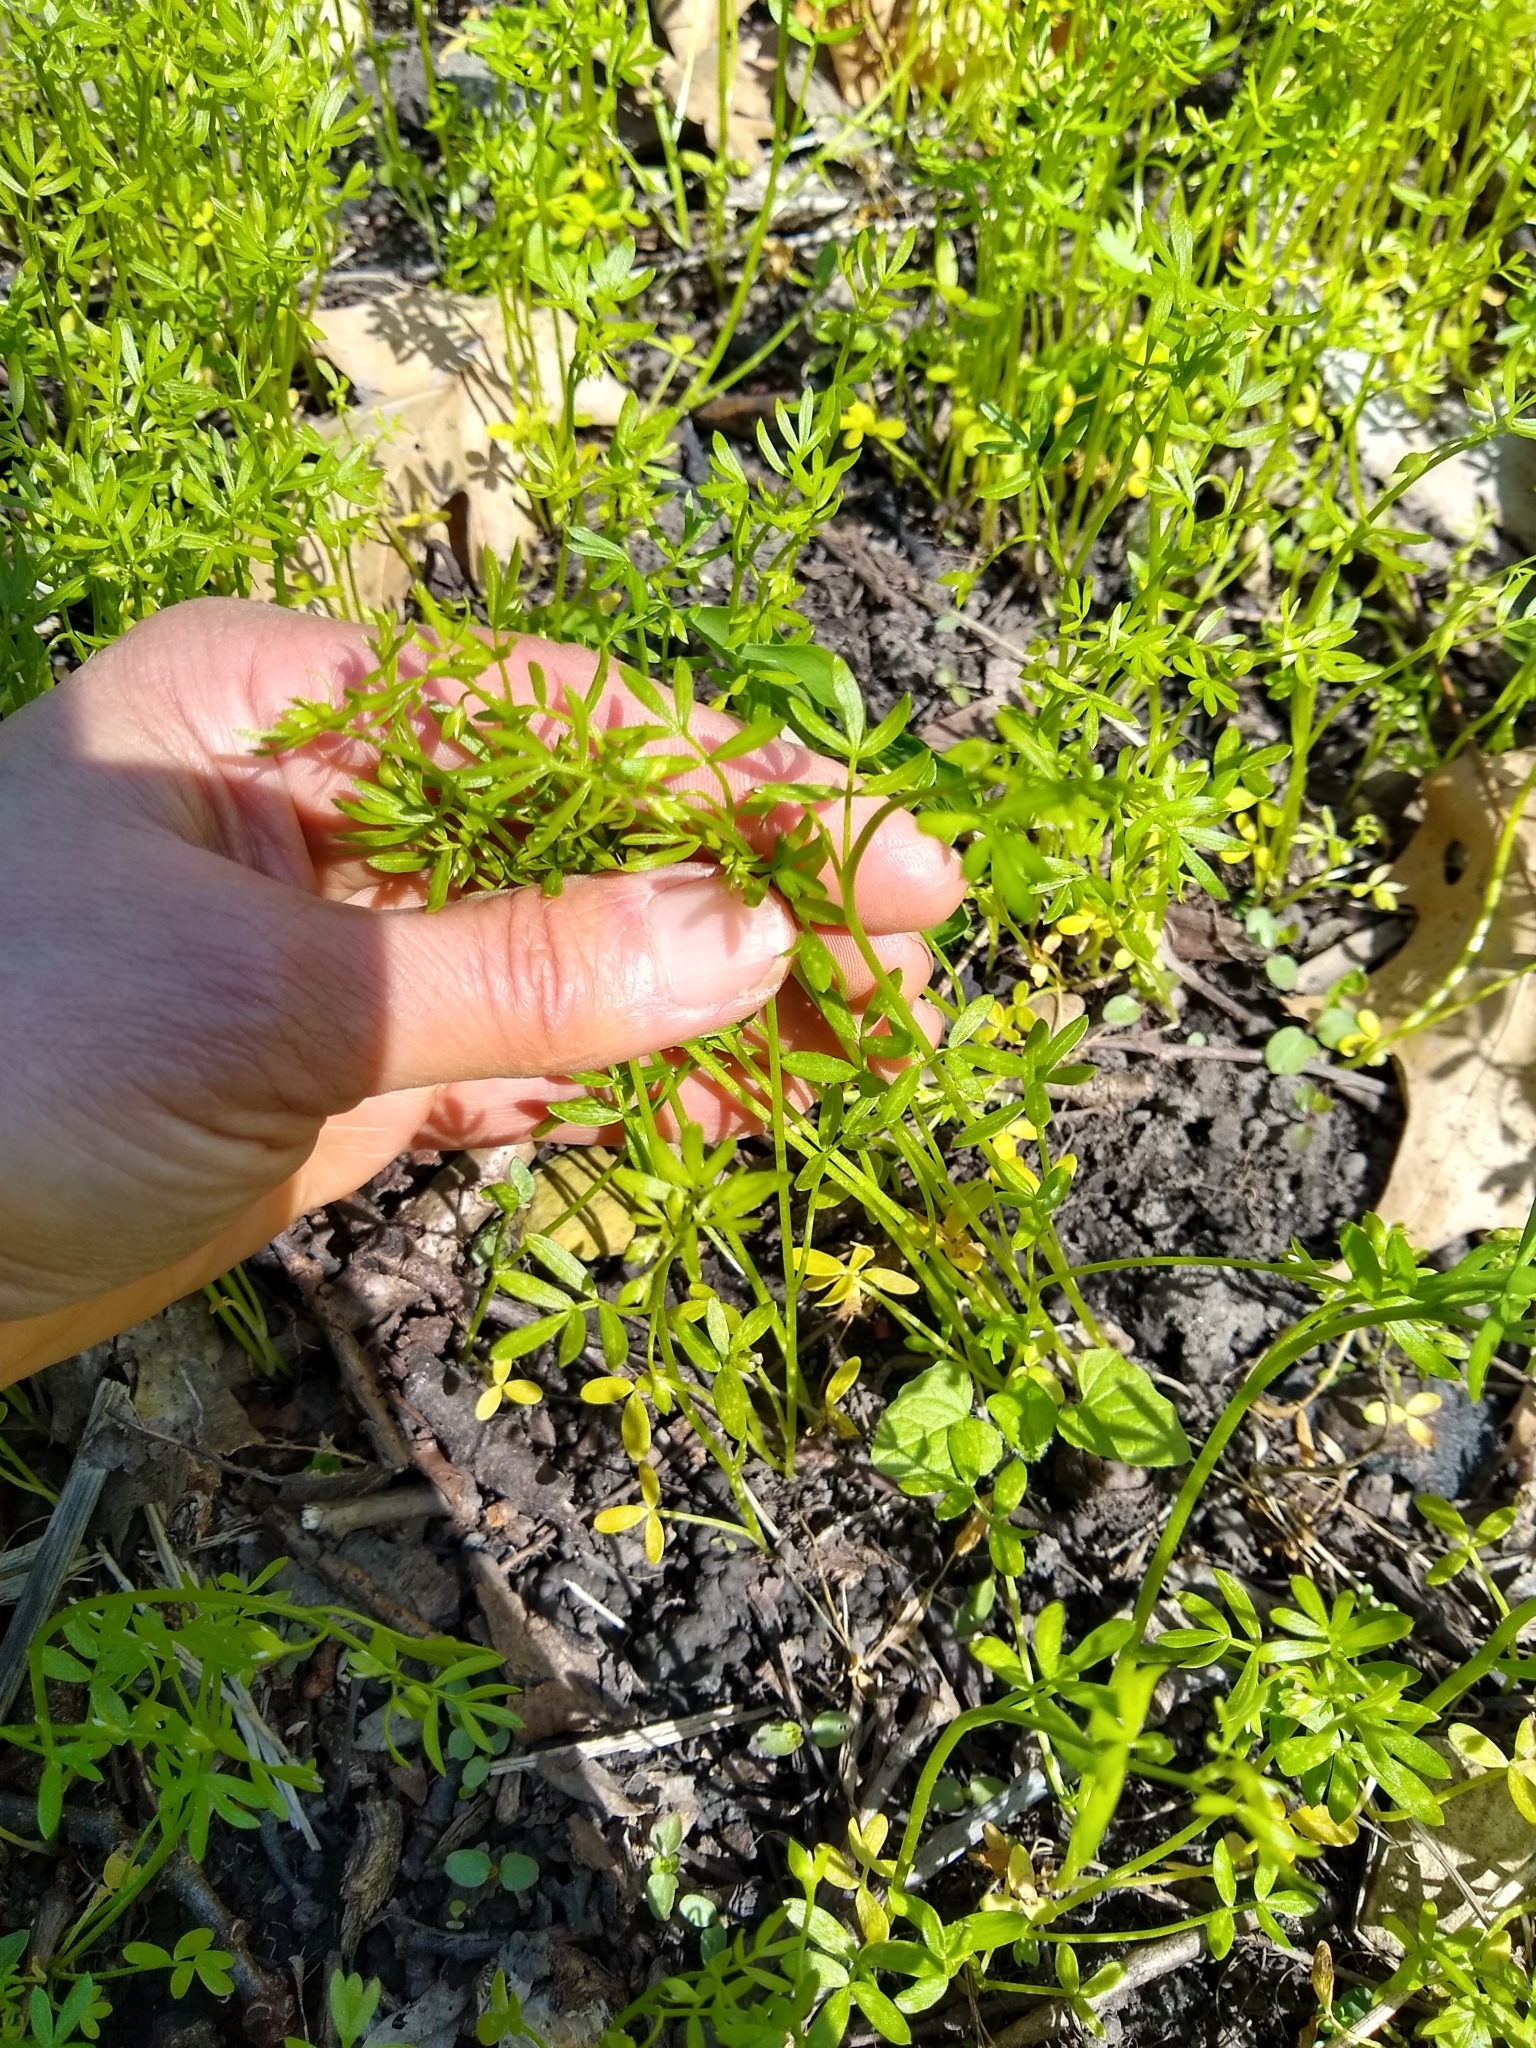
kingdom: Plantae
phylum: Tracheophyta
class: Magnoliopsida
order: Brassicales
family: Limnanthaceae
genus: Floerkea
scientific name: Floerkea proserpinacoides
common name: False mermaid
